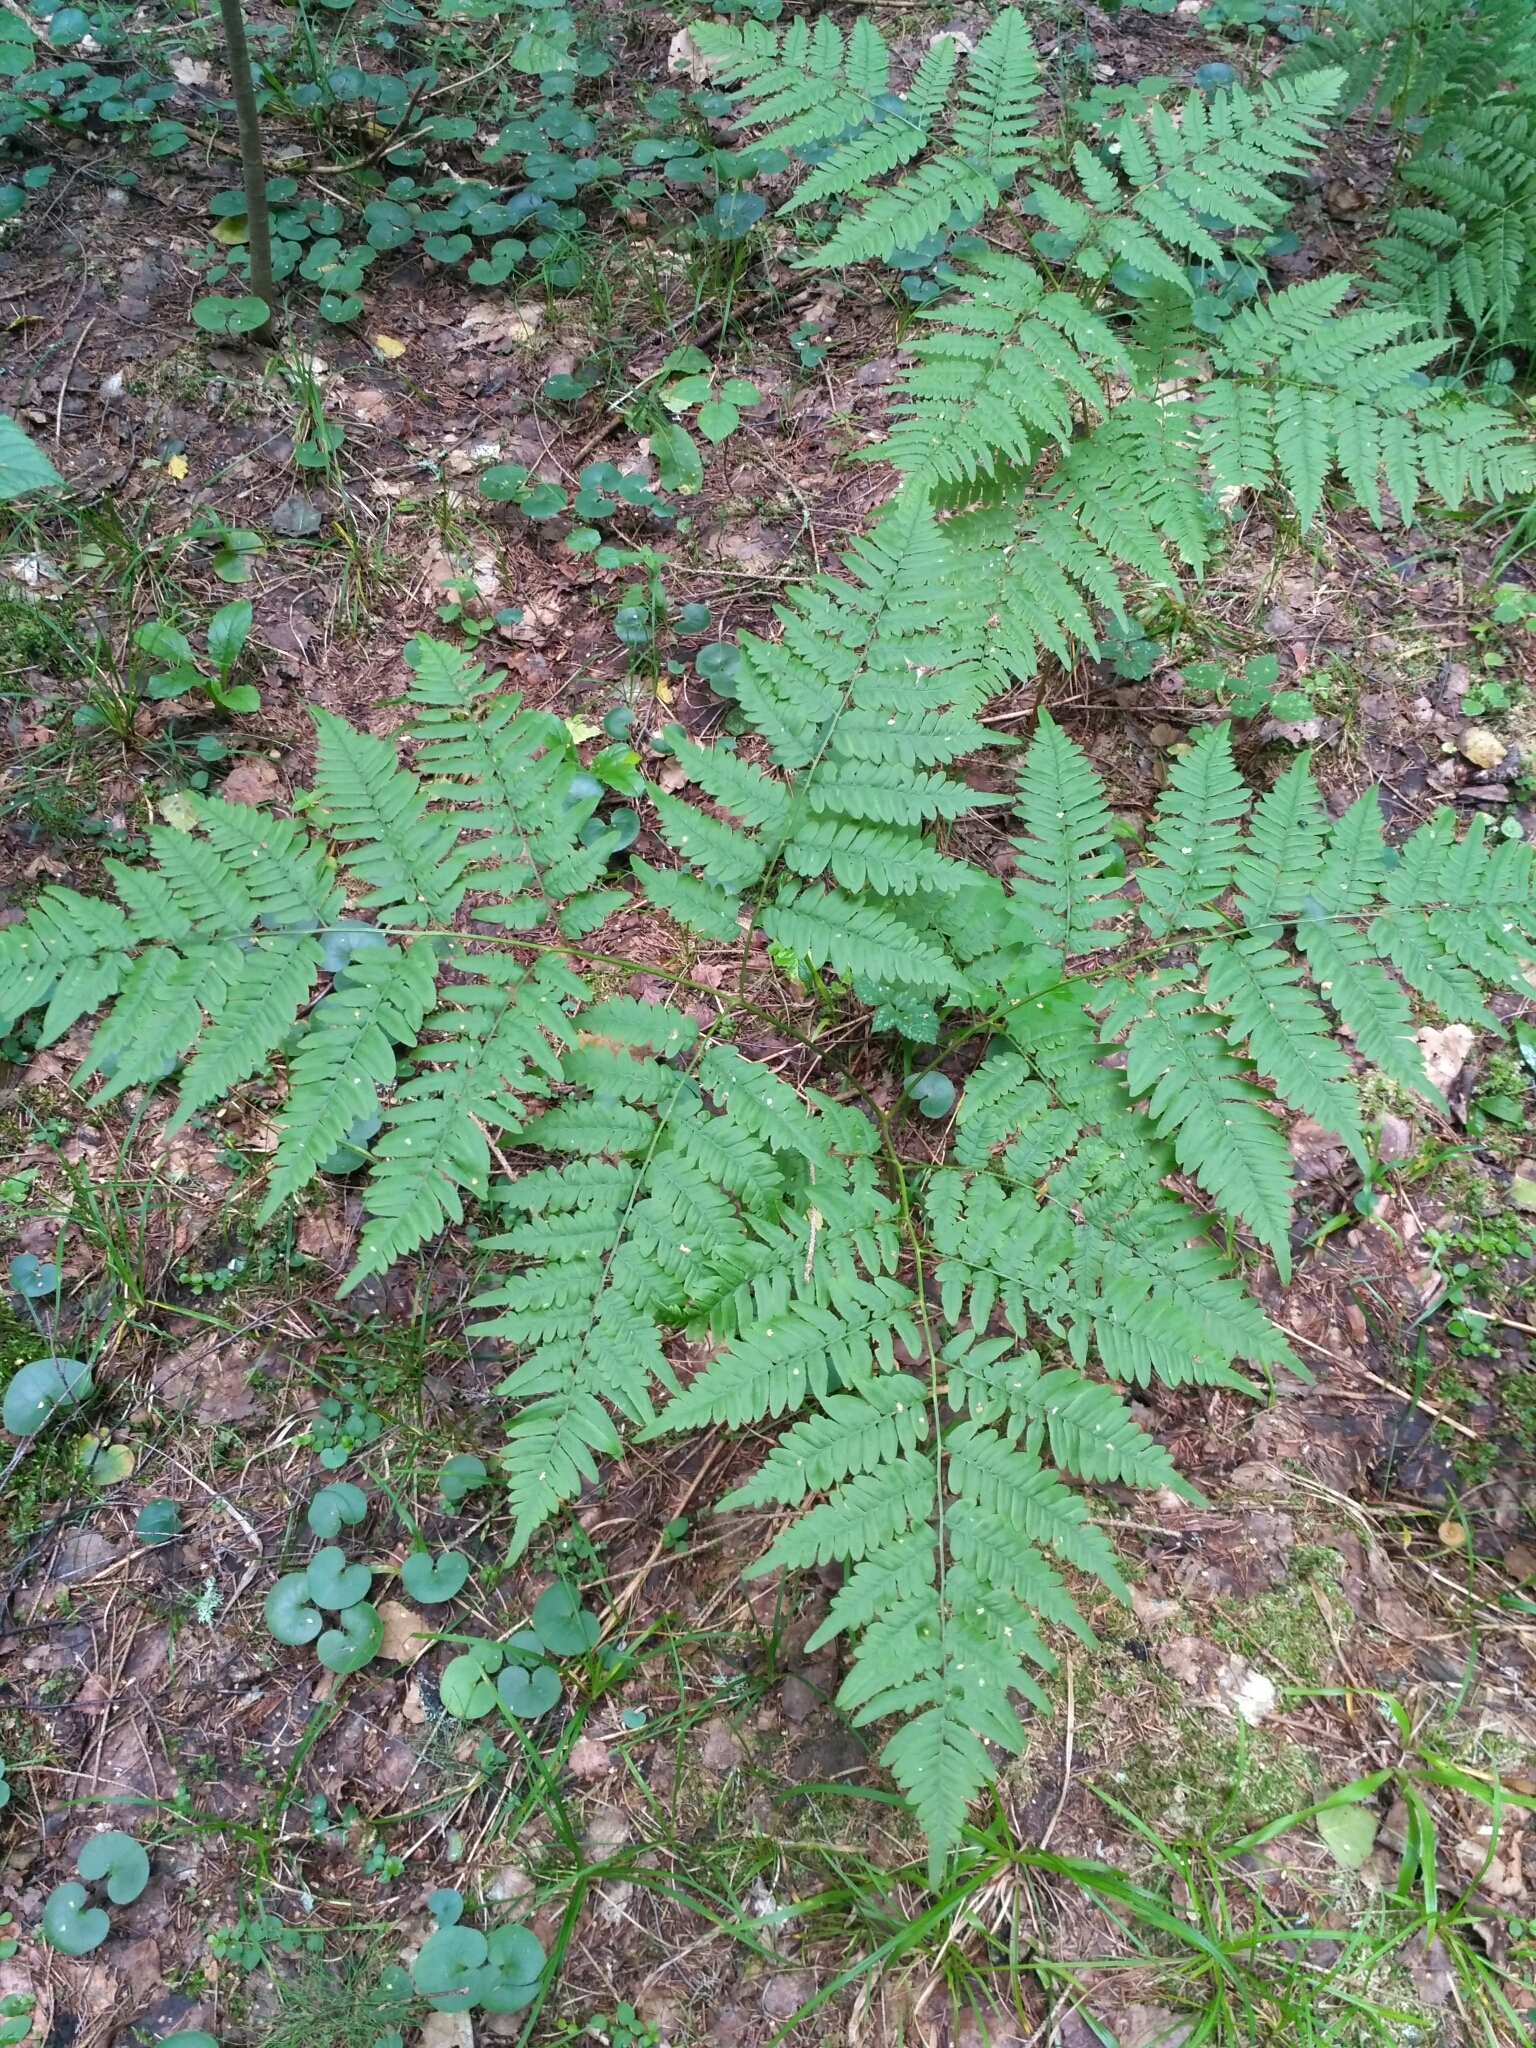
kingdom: Plantae
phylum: Tracheophyta
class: Polypodiopsida
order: Polypodiales
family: Dennstaedtiaceae
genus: Pteridium
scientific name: Pteridium aquilinum
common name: Bracken
